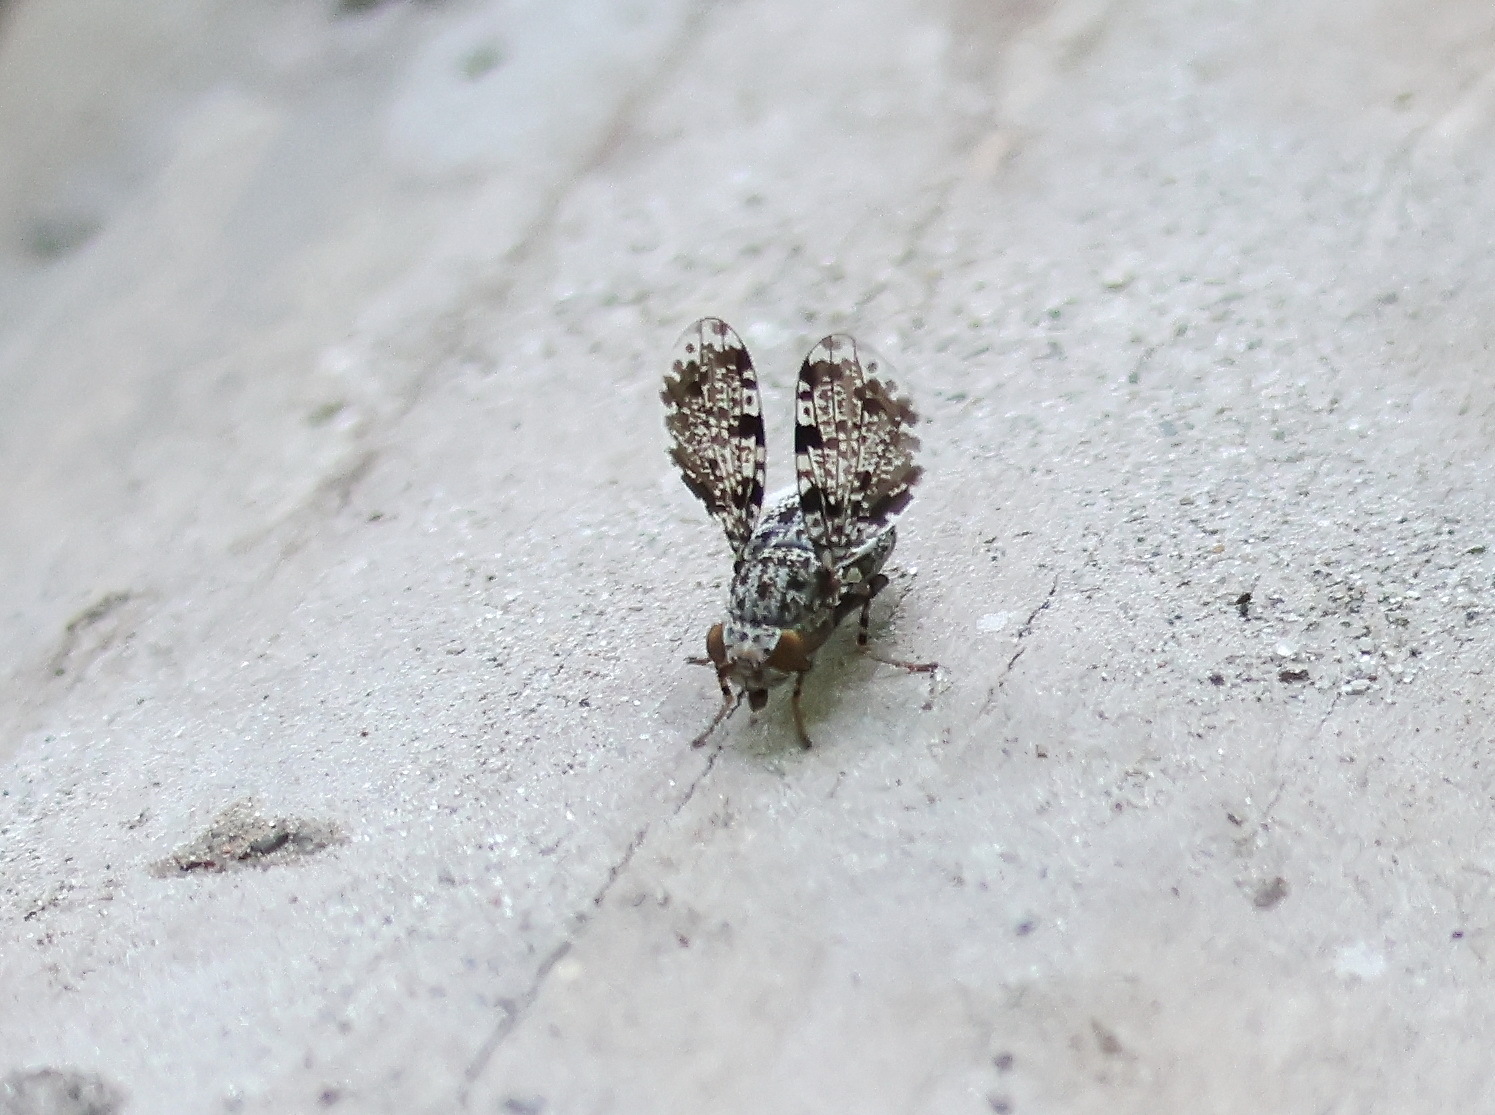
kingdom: Animalia
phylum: Arthropoda
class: Insecta
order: Diptera
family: Ulidiidae
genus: Callopistromyia
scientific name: Callopistromyia annulipes
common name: Peacock fly
